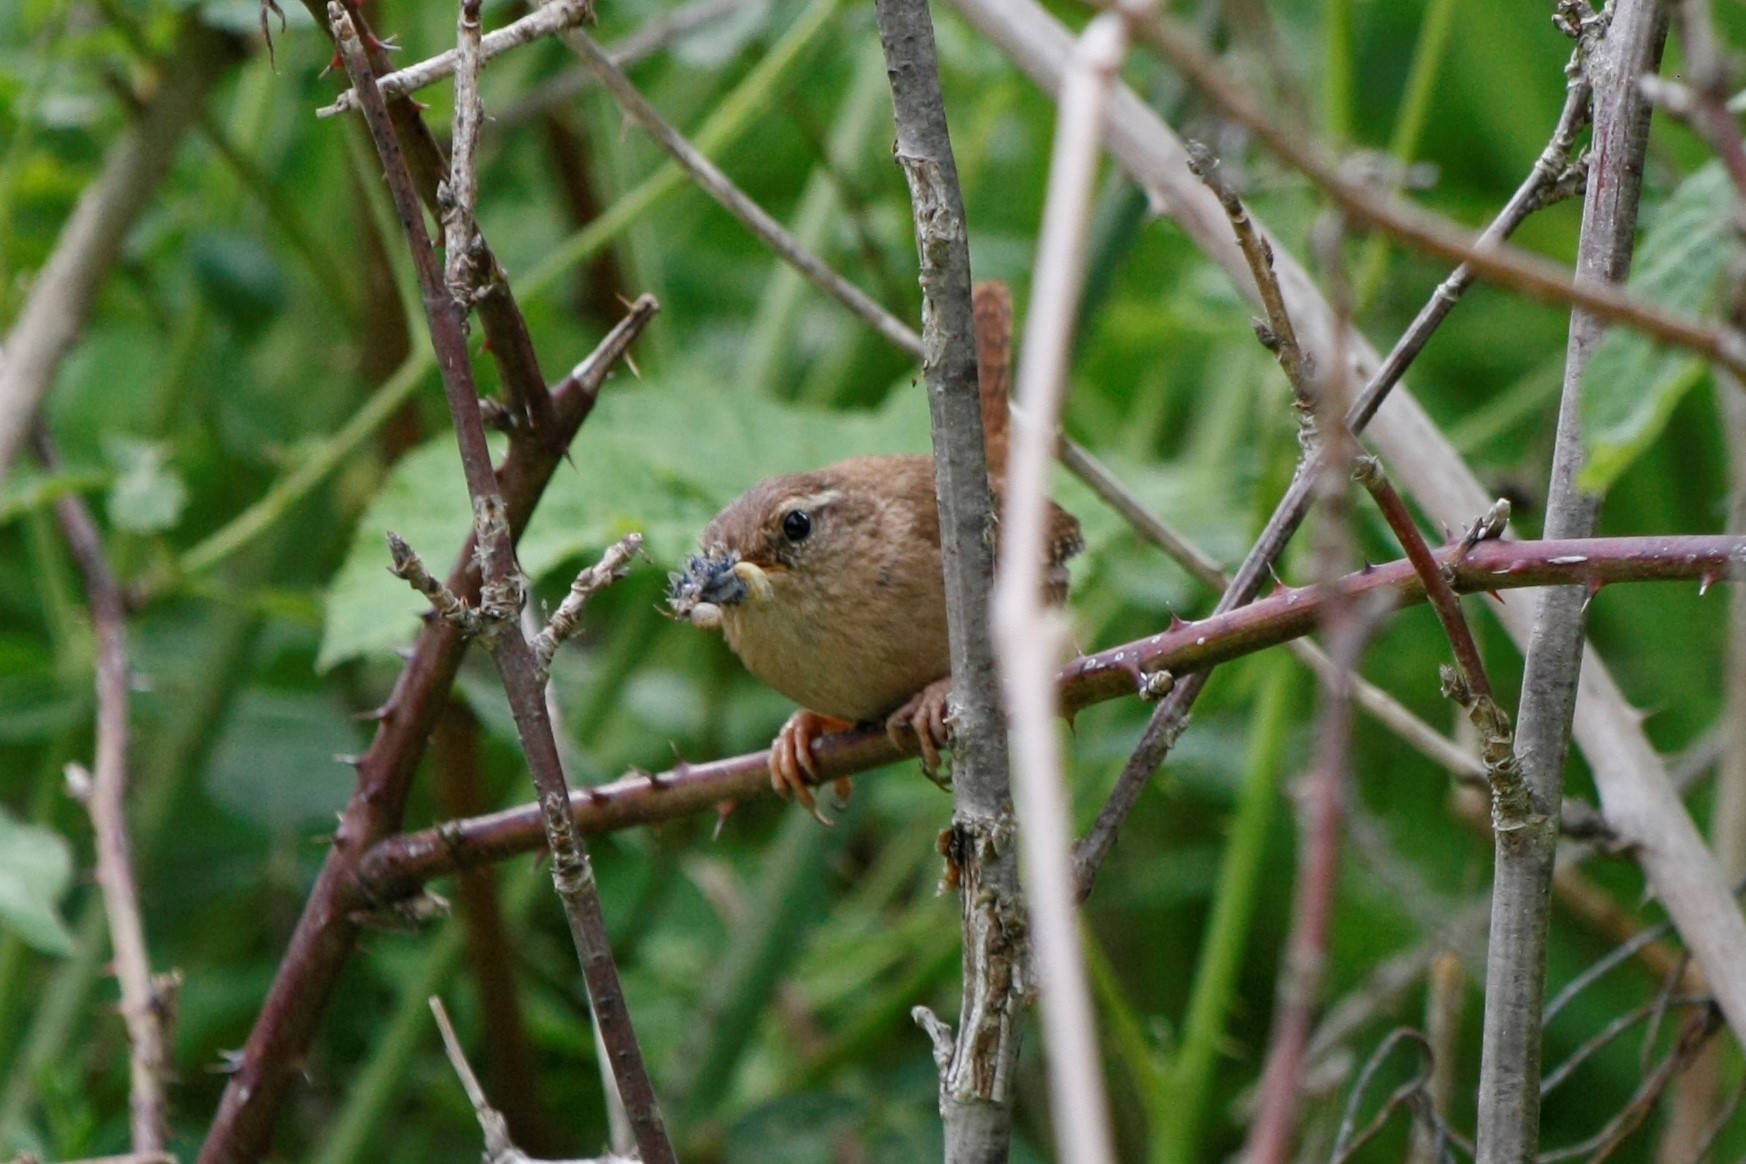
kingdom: Animalia
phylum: Chordata
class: Aves
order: Passeriformes
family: Troglodytidae
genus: Troglodytes
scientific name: Troglodytes troglodytes
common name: Eurasian wren
